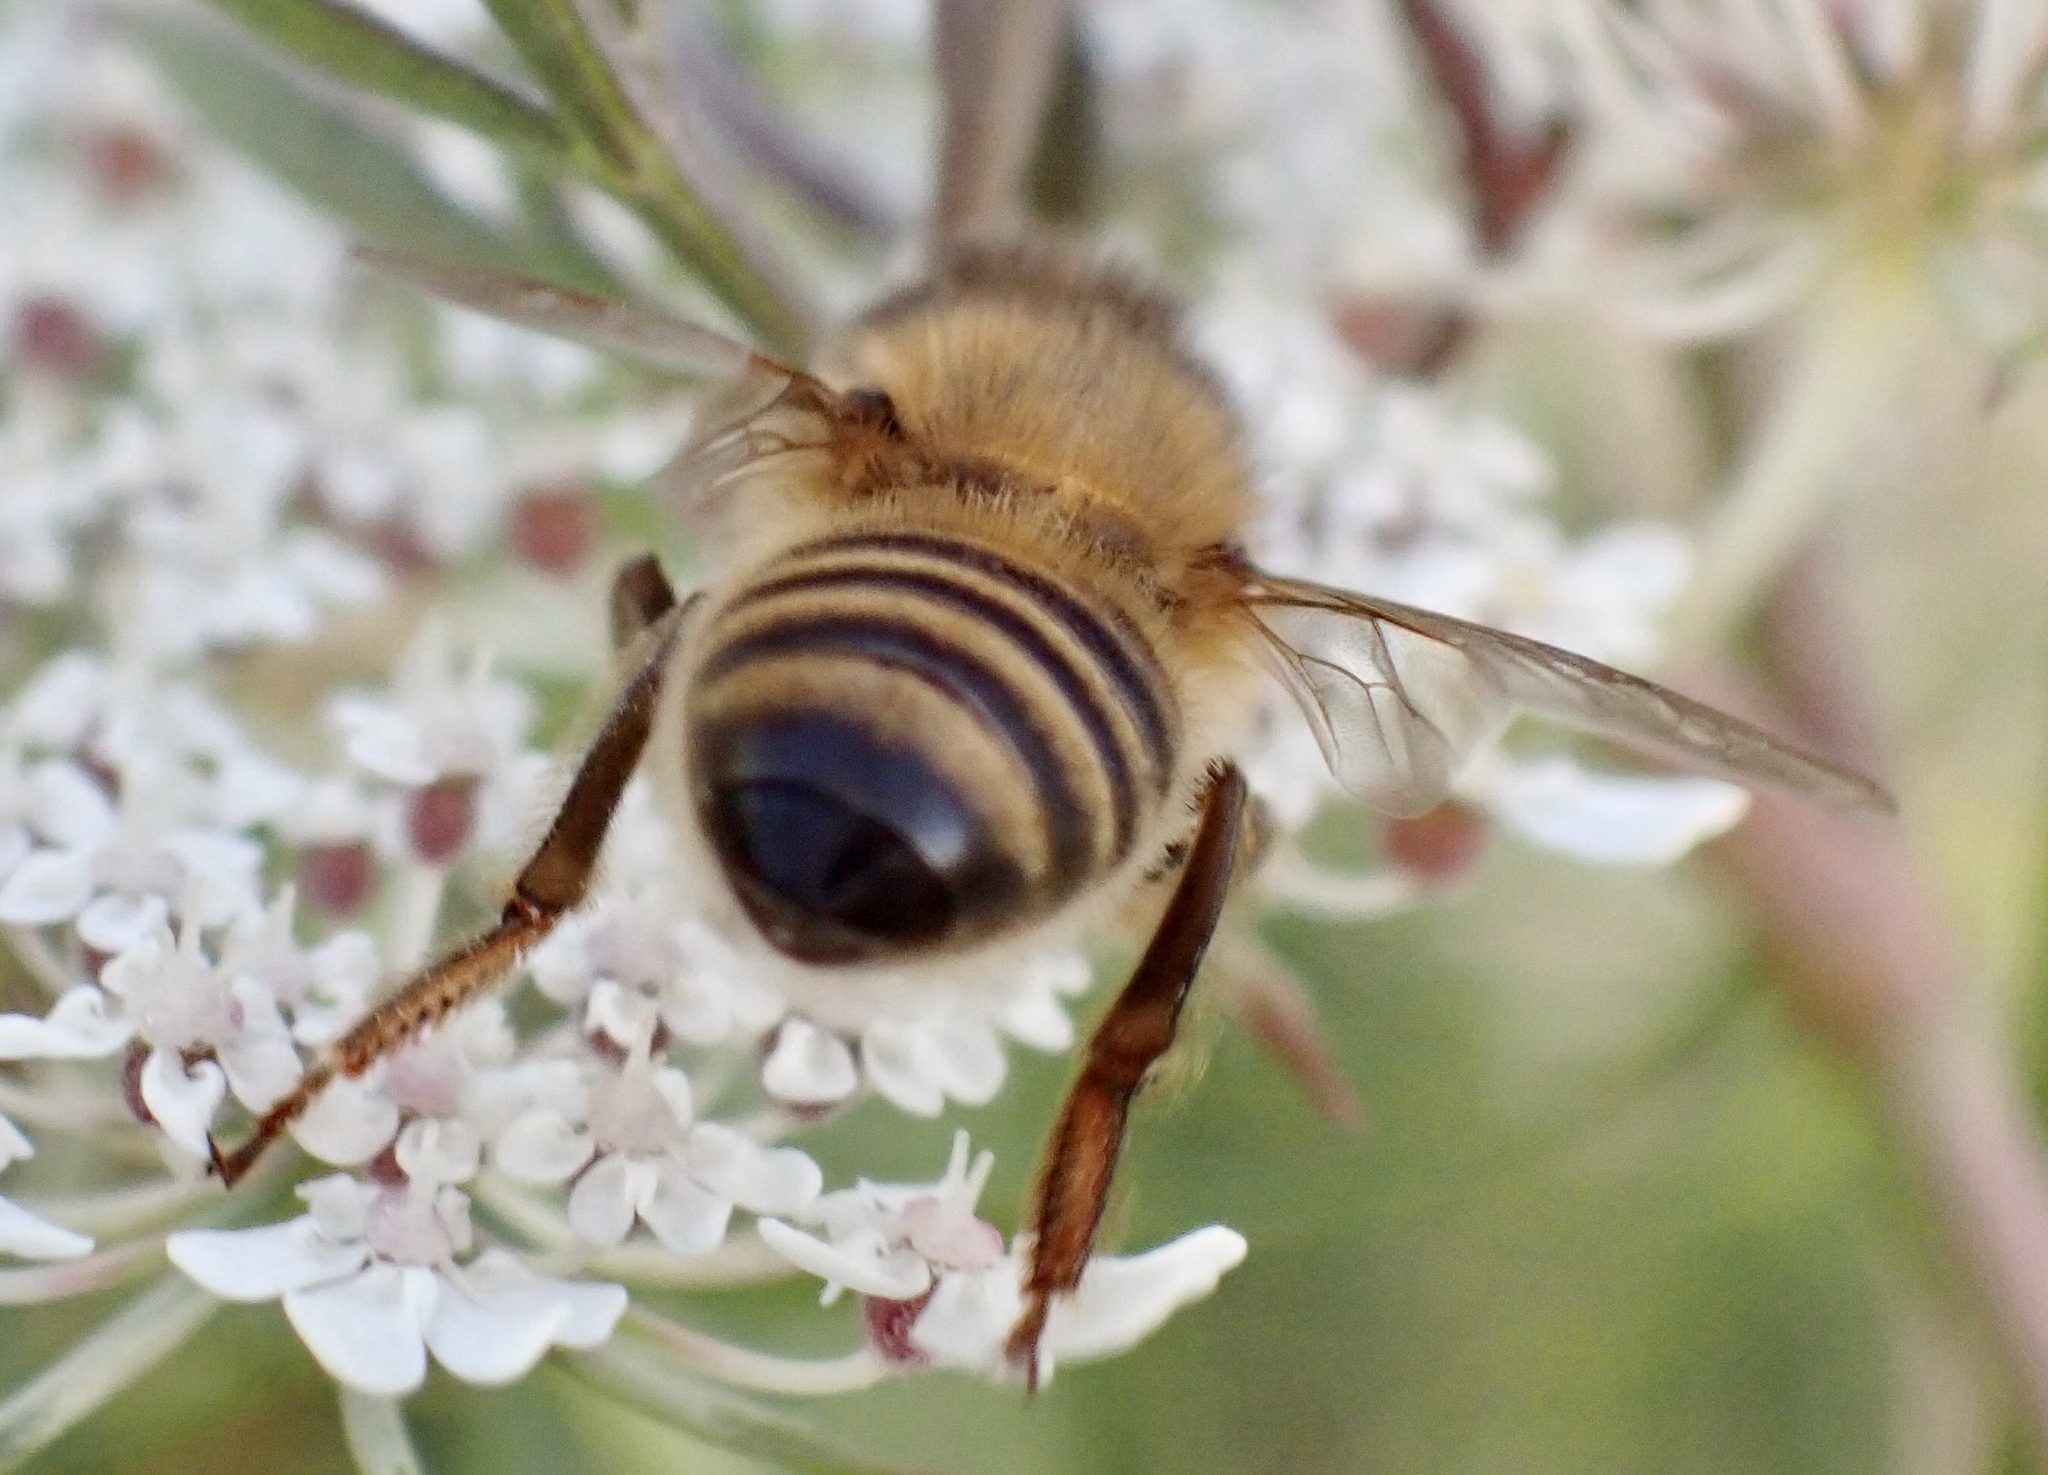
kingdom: Animalia
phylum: Arthropoda
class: Insecta
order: Hymenoptera
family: Apidae
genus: Apis
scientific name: Apis mellifera
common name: Honey bee
